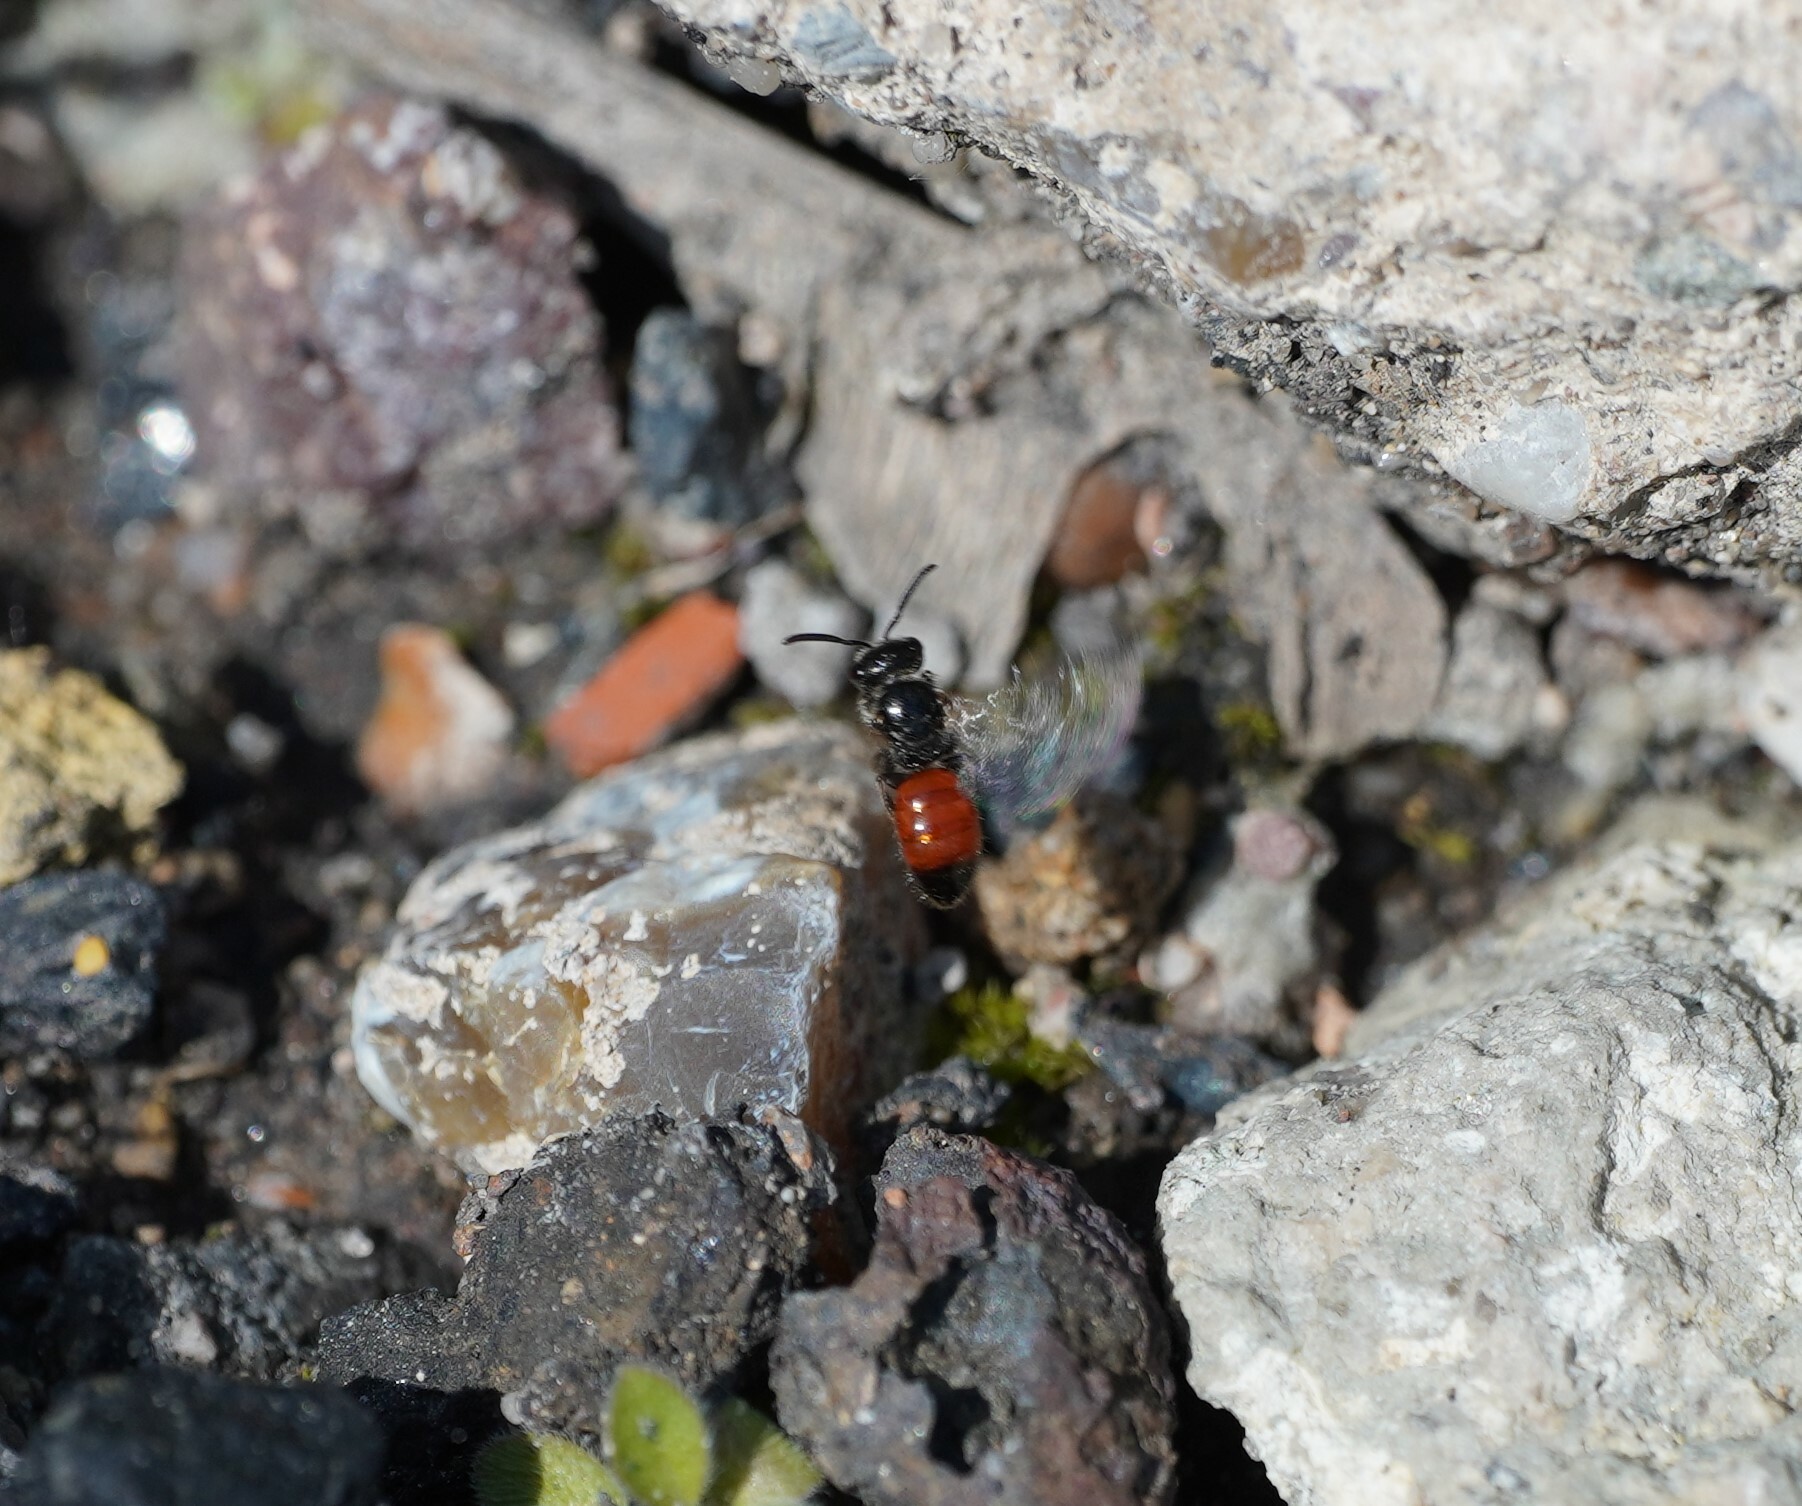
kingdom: Animalia
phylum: Arthropoda
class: Insecta
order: Hymenoptera
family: Halictidae
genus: Sphecodes
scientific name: Sphecodes
